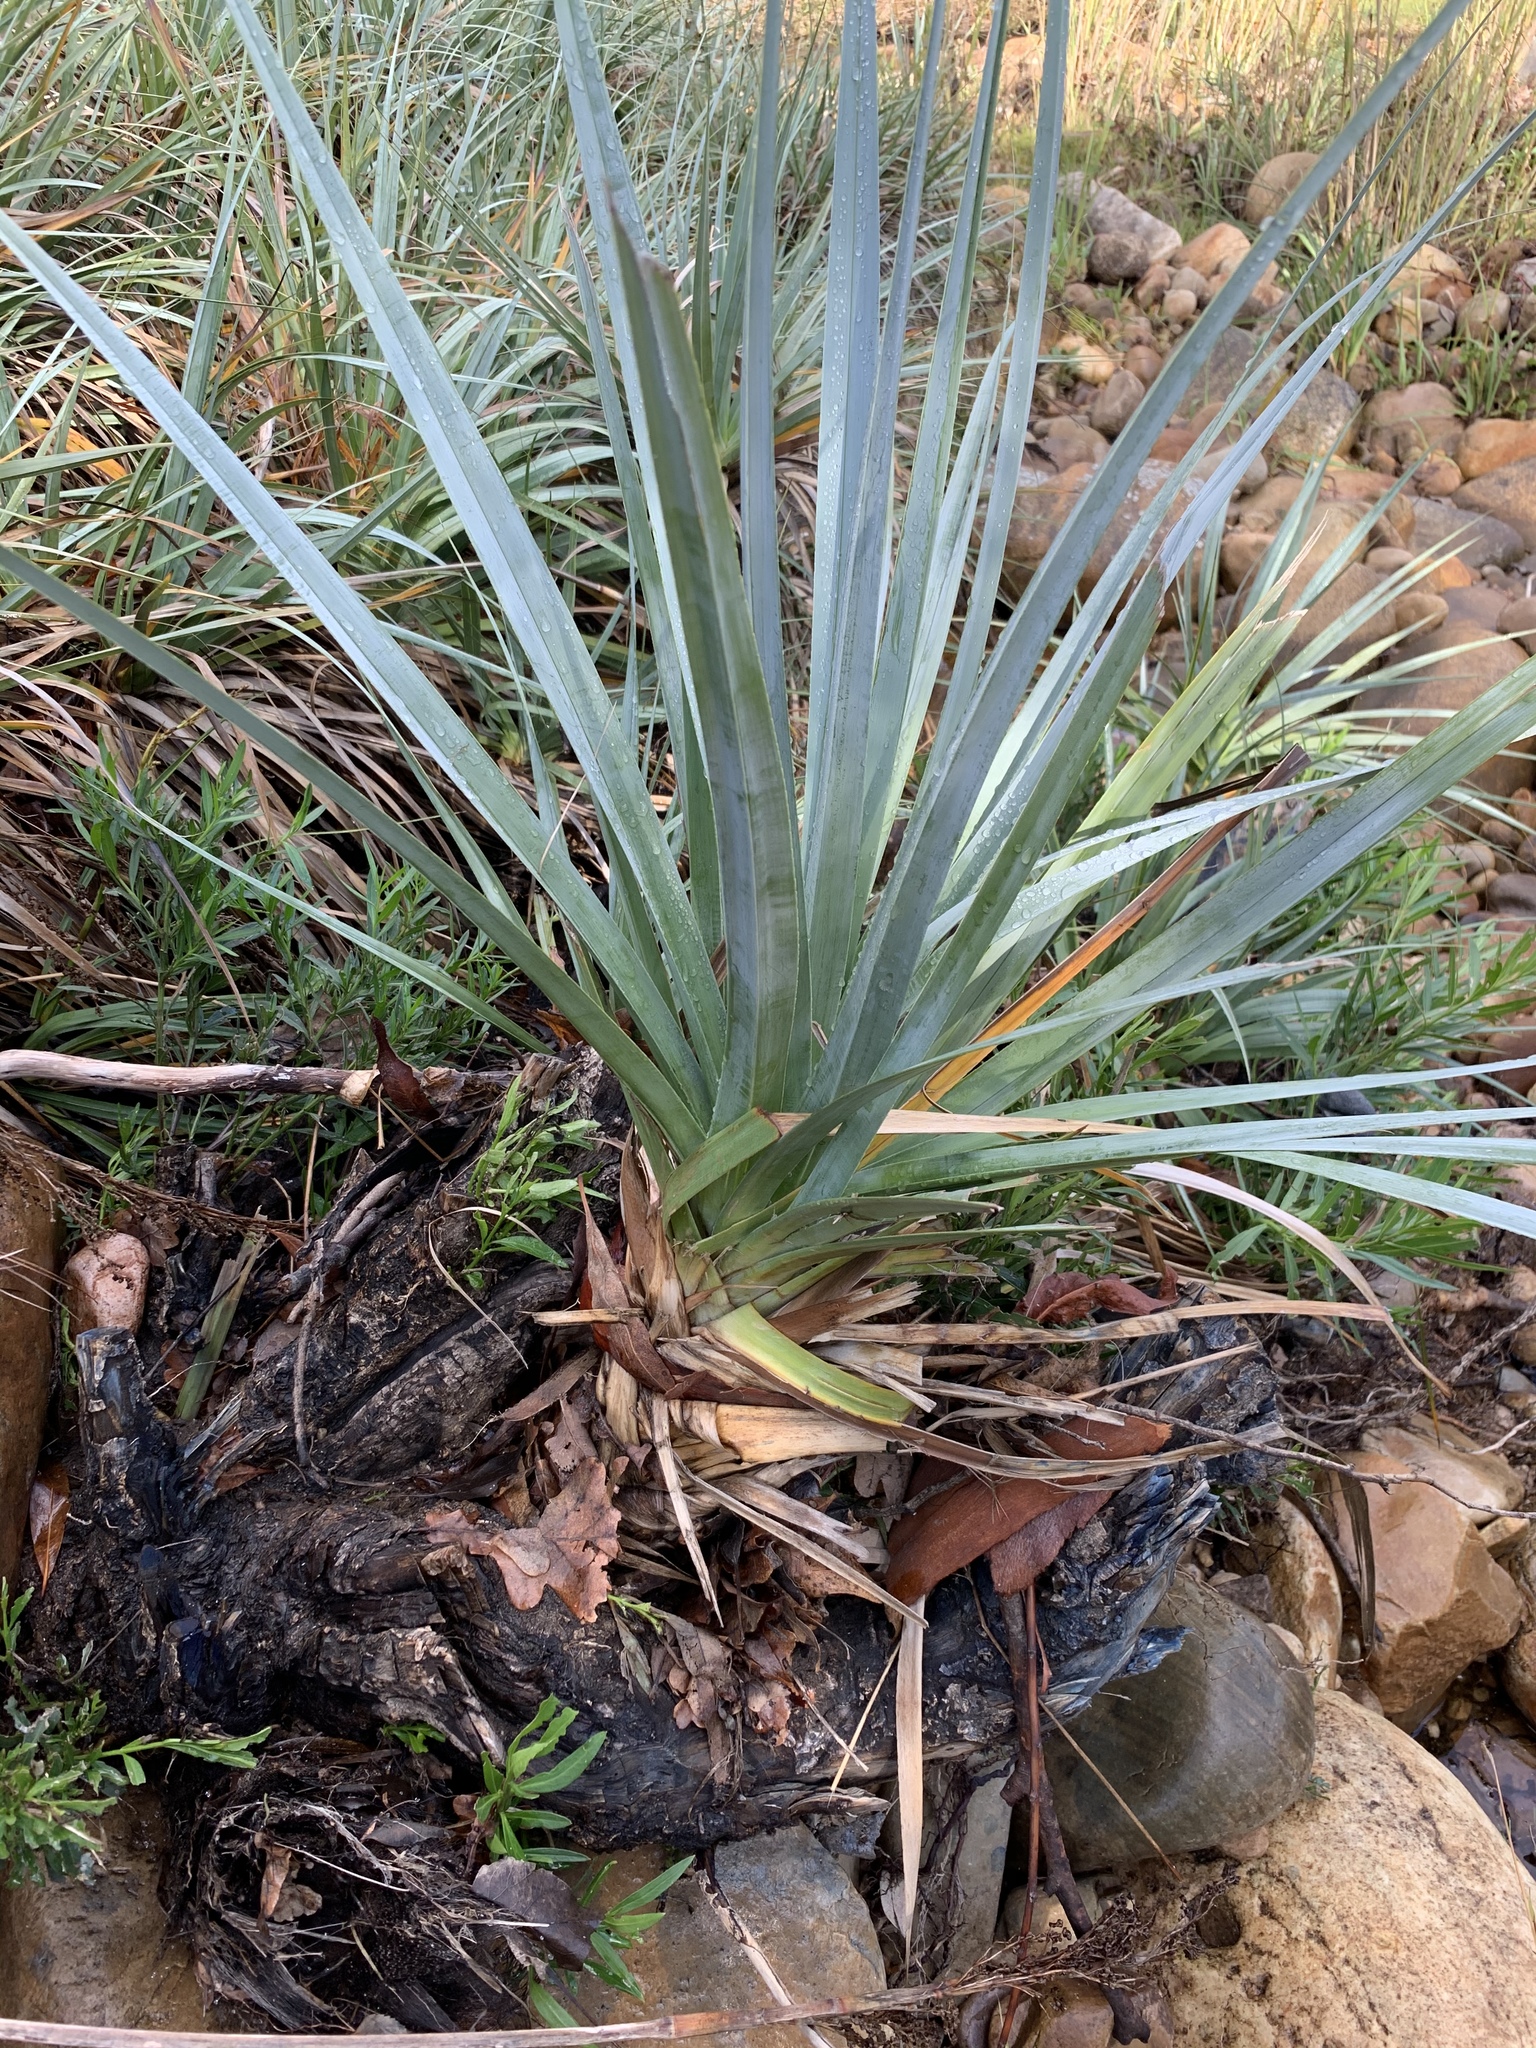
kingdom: Plantae
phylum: Tracheophyta
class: Liliopsida
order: Poales
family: Thurniaceae
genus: Prionium
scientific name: Prionium serratum
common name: Palmiet
